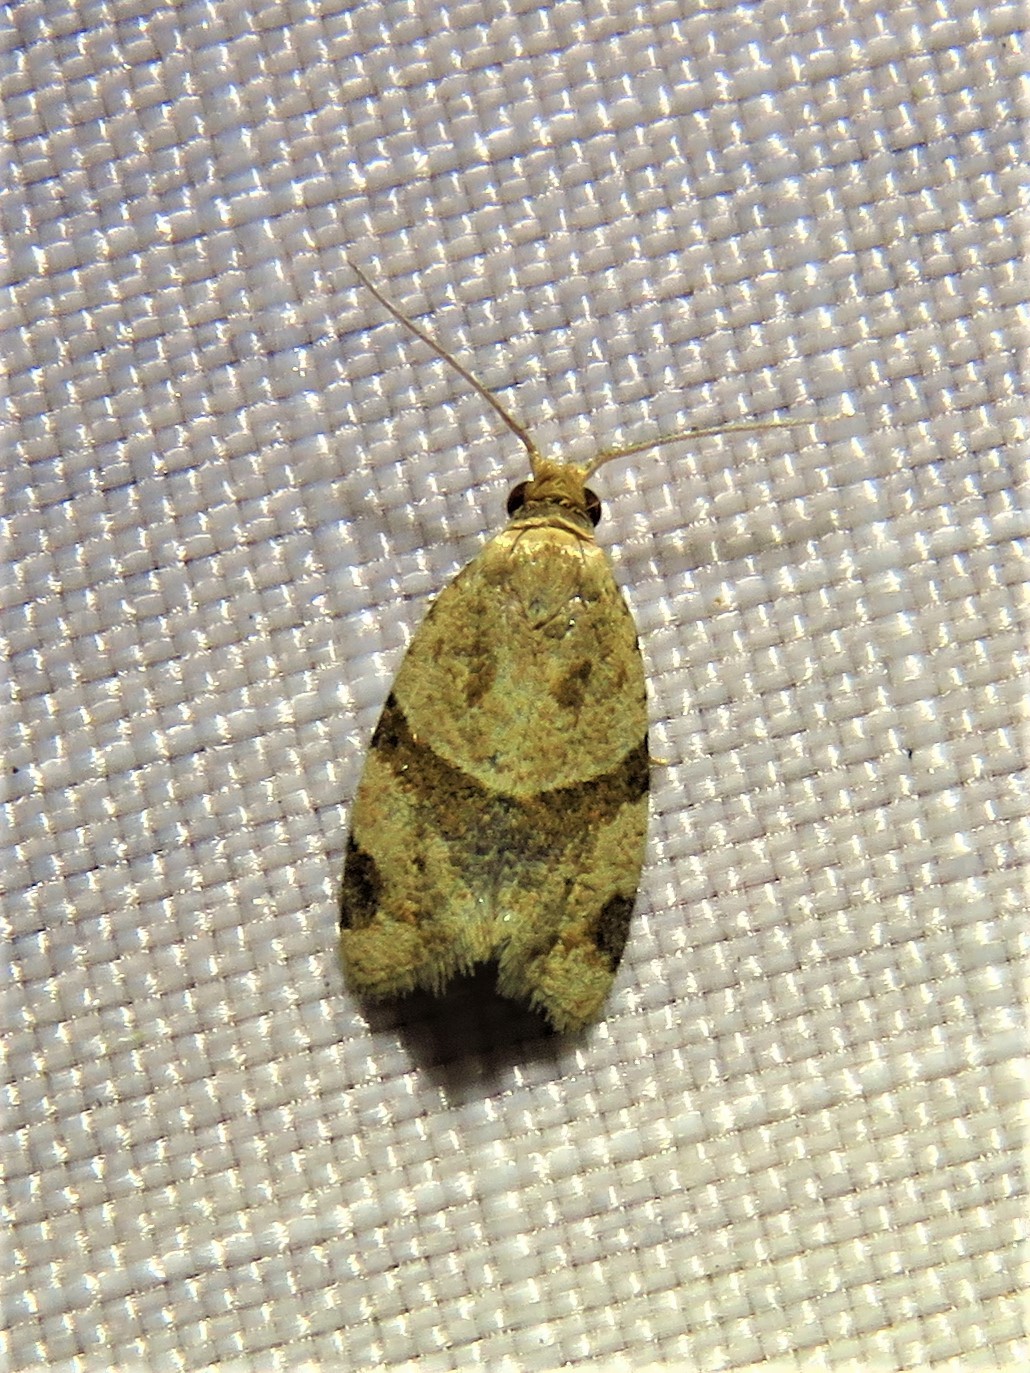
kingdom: Animalia
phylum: Arthropoda
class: Insecta
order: Lepidoptera
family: Tortricidae
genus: Clepsis
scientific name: Clepsis peritana
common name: Garden tortrix
